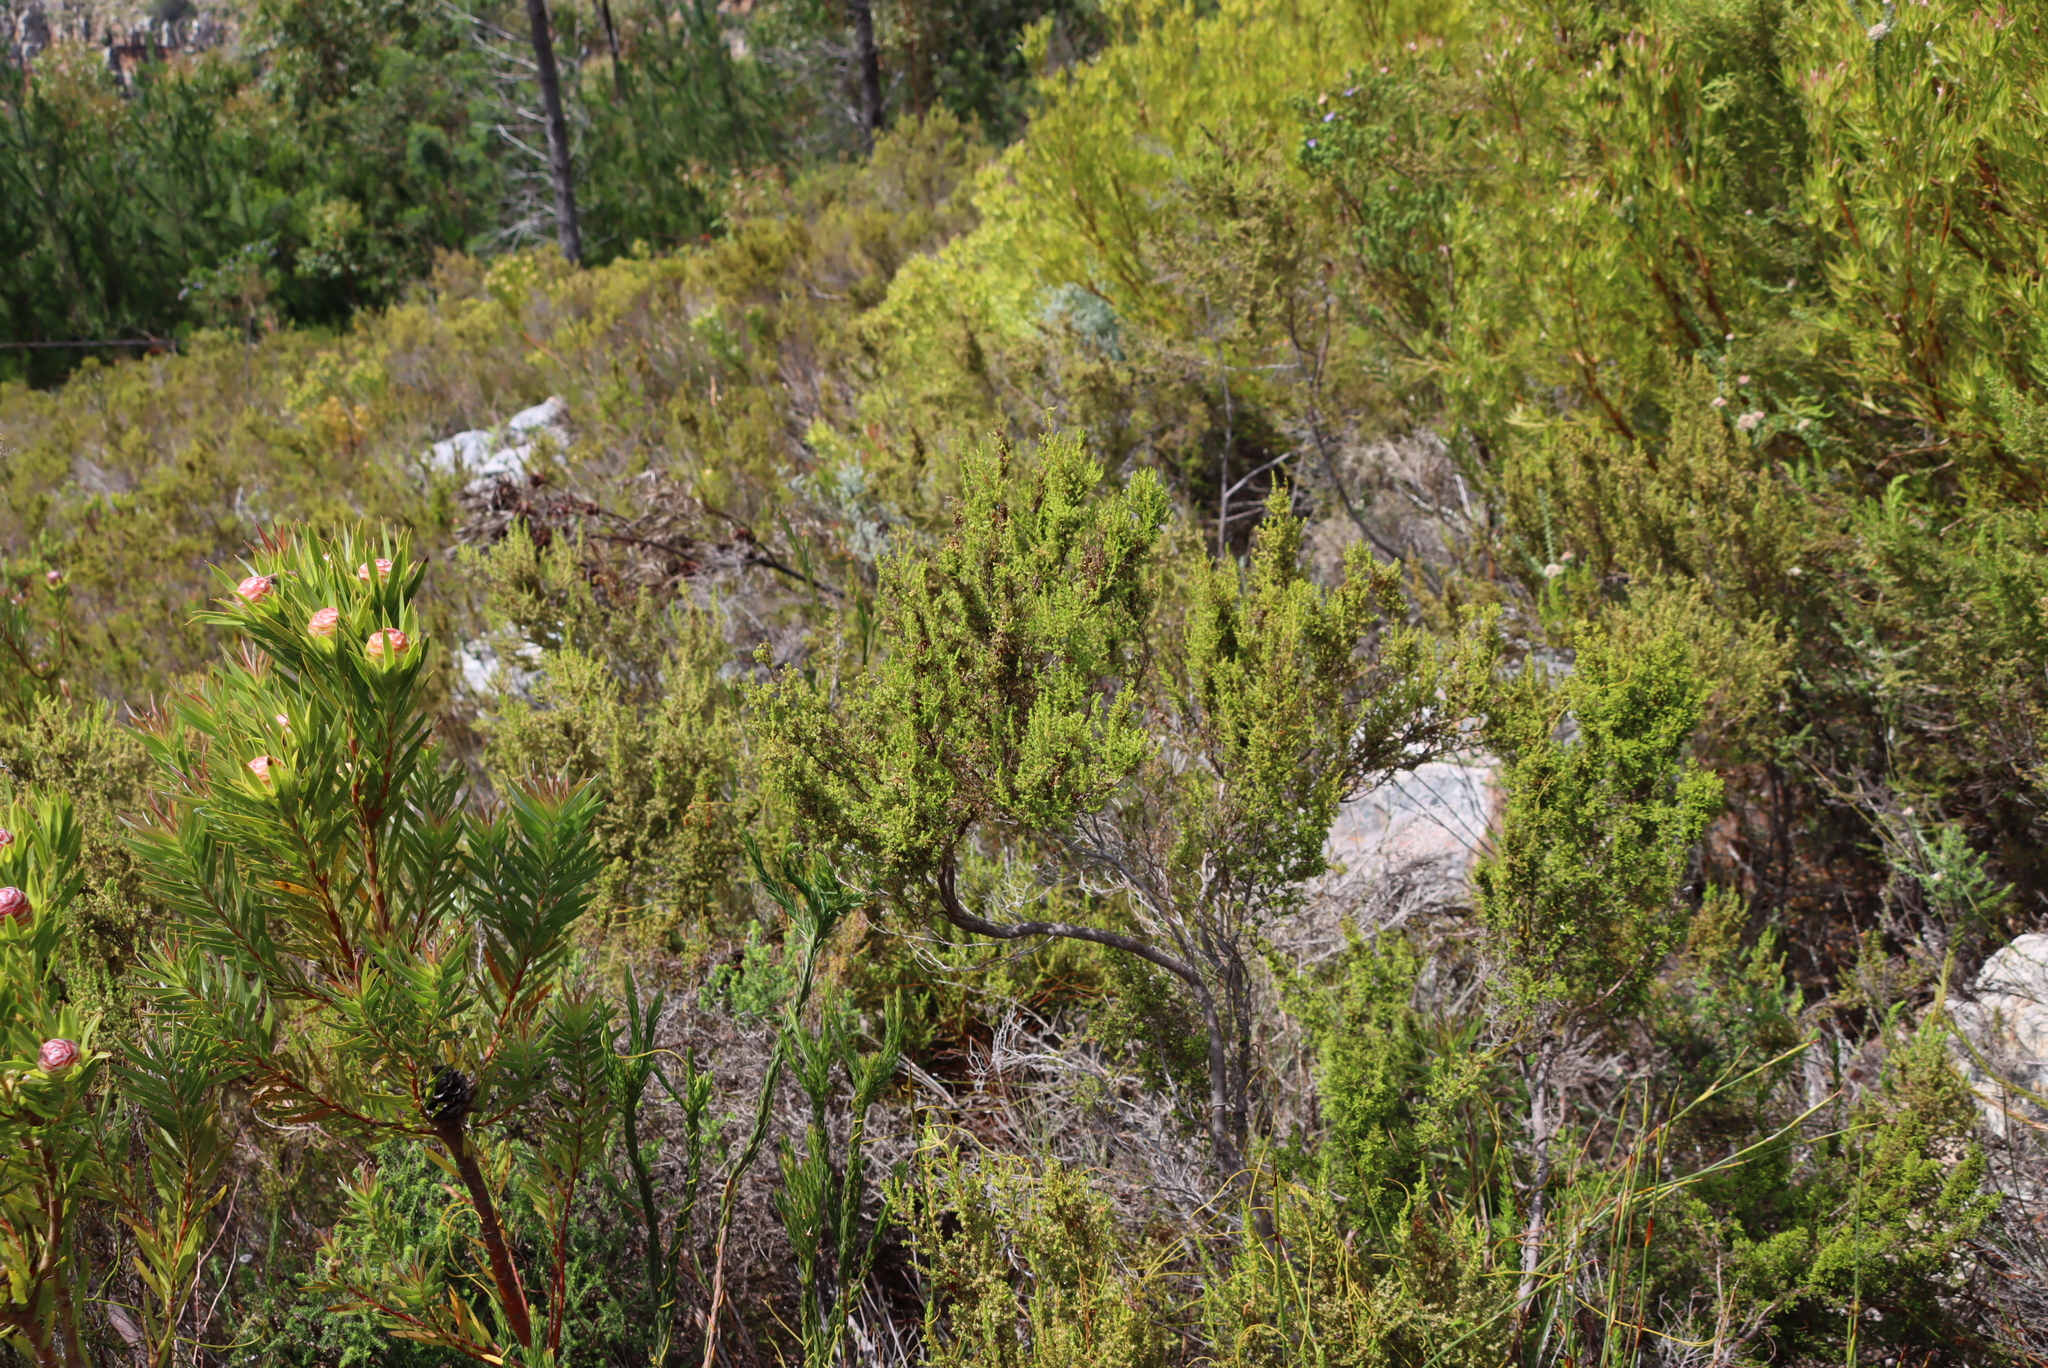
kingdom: Plantae
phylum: Tracheophyta
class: Magnoliopsida
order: Ericales
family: Ericaceae
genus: Erica
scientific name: Erica muscosa
